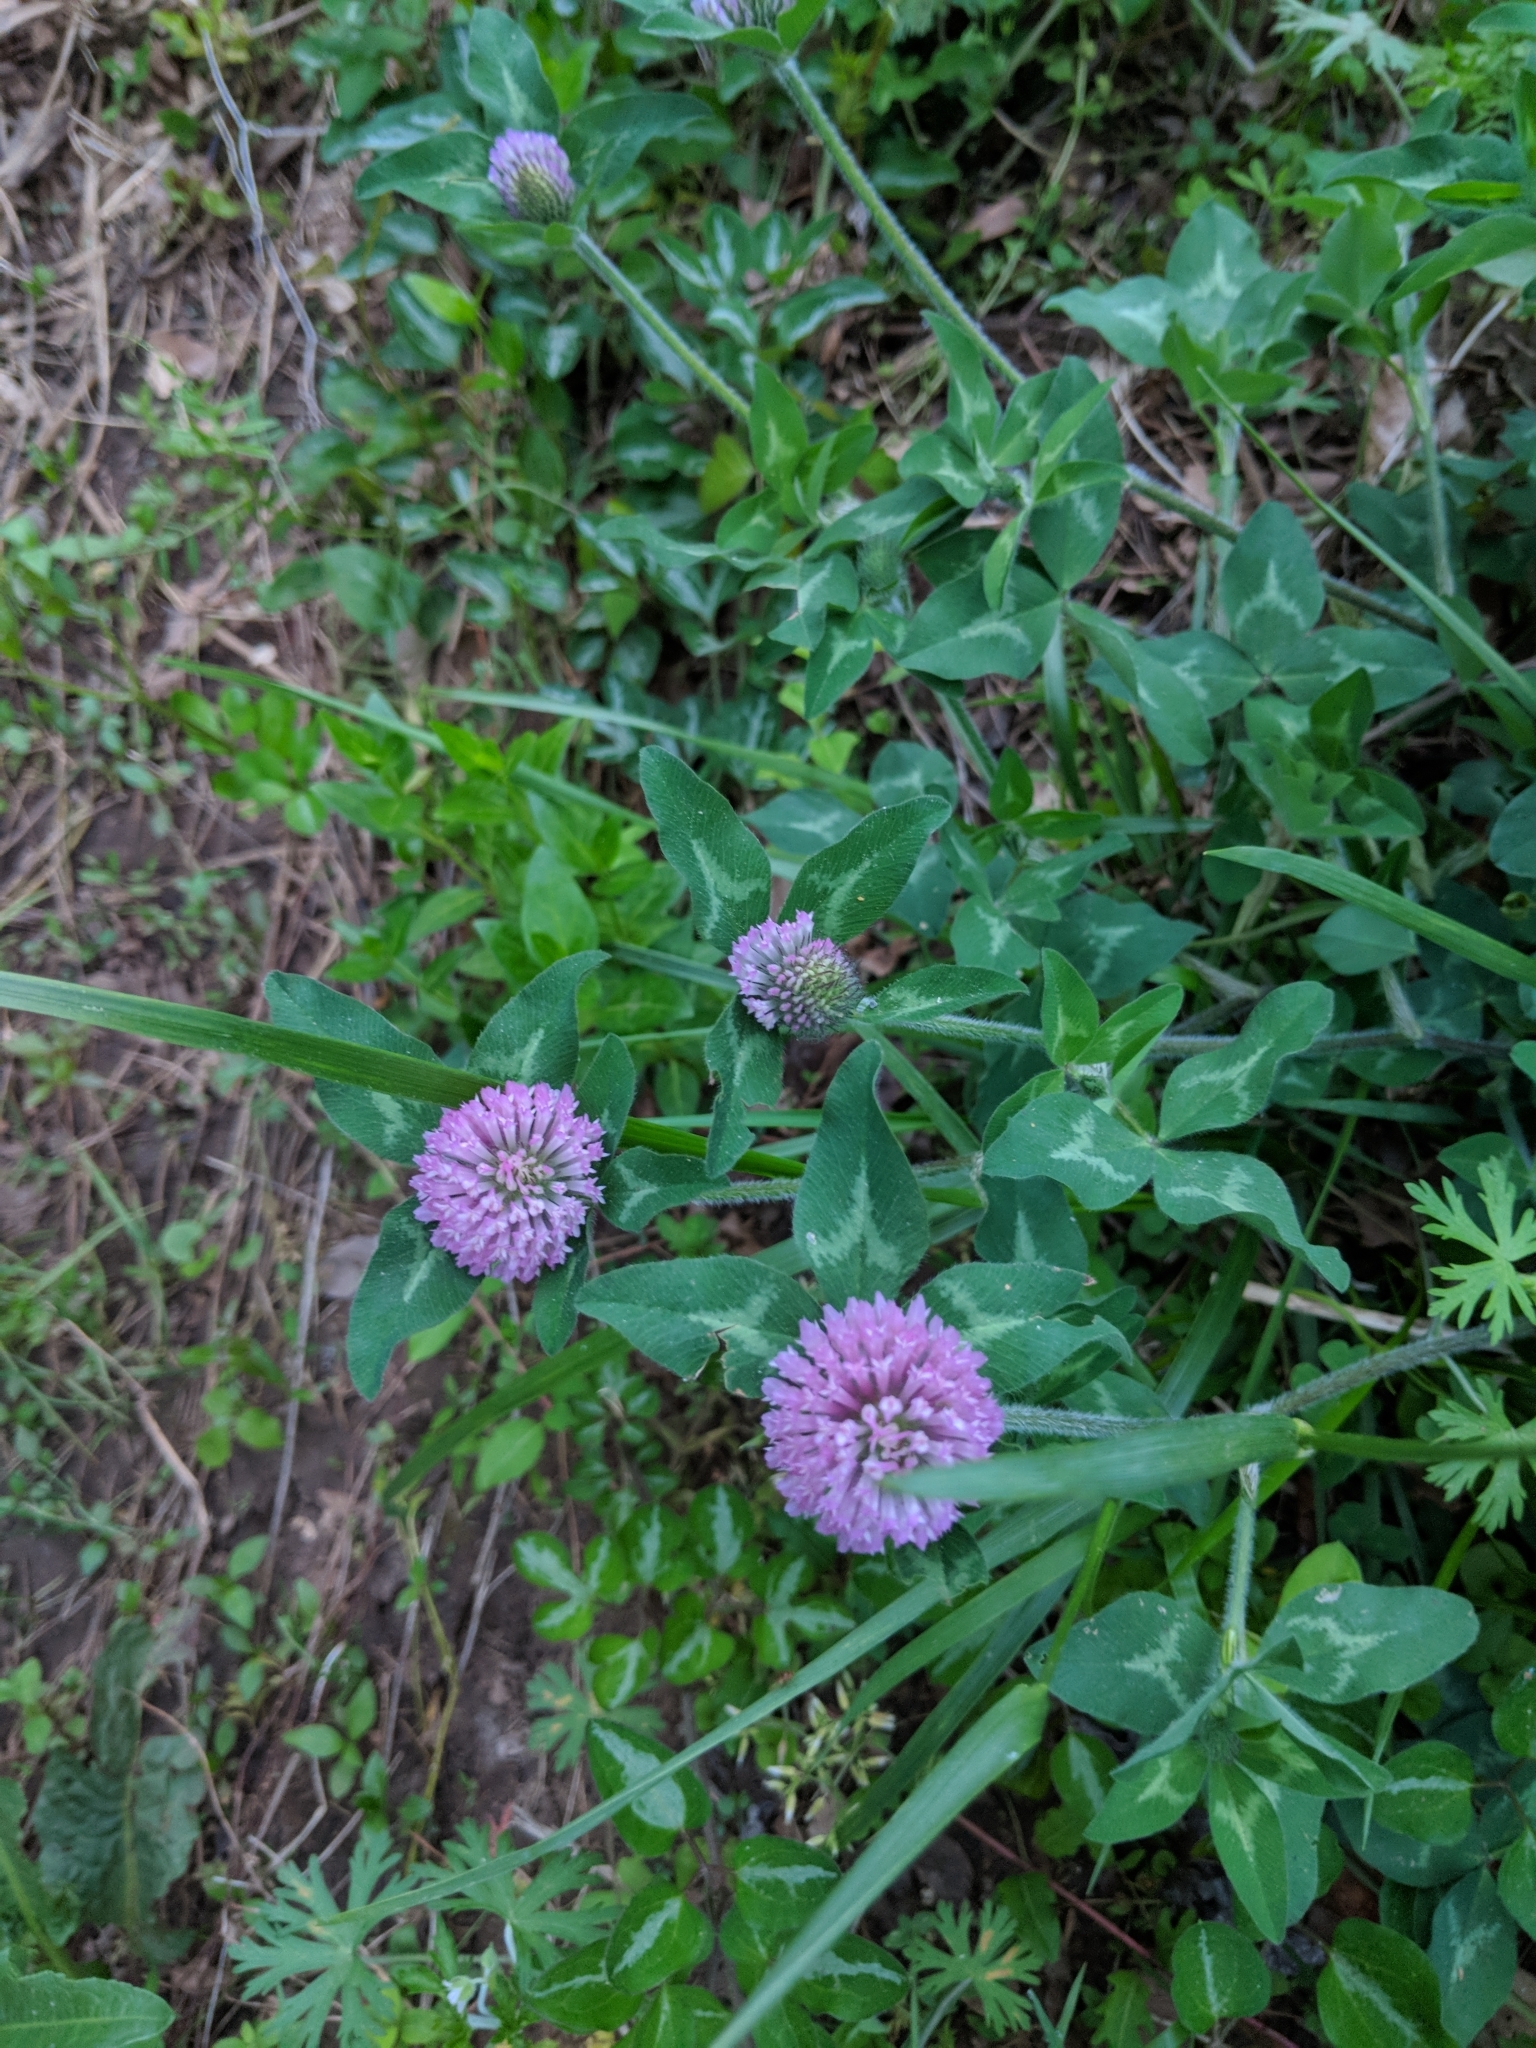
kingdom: Plantae
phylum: Tracheophyta
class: Magnoliopsida
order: Fabales
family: Fabaceae
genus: Trifolium
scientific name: Trifolium pratense
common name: Red clover
